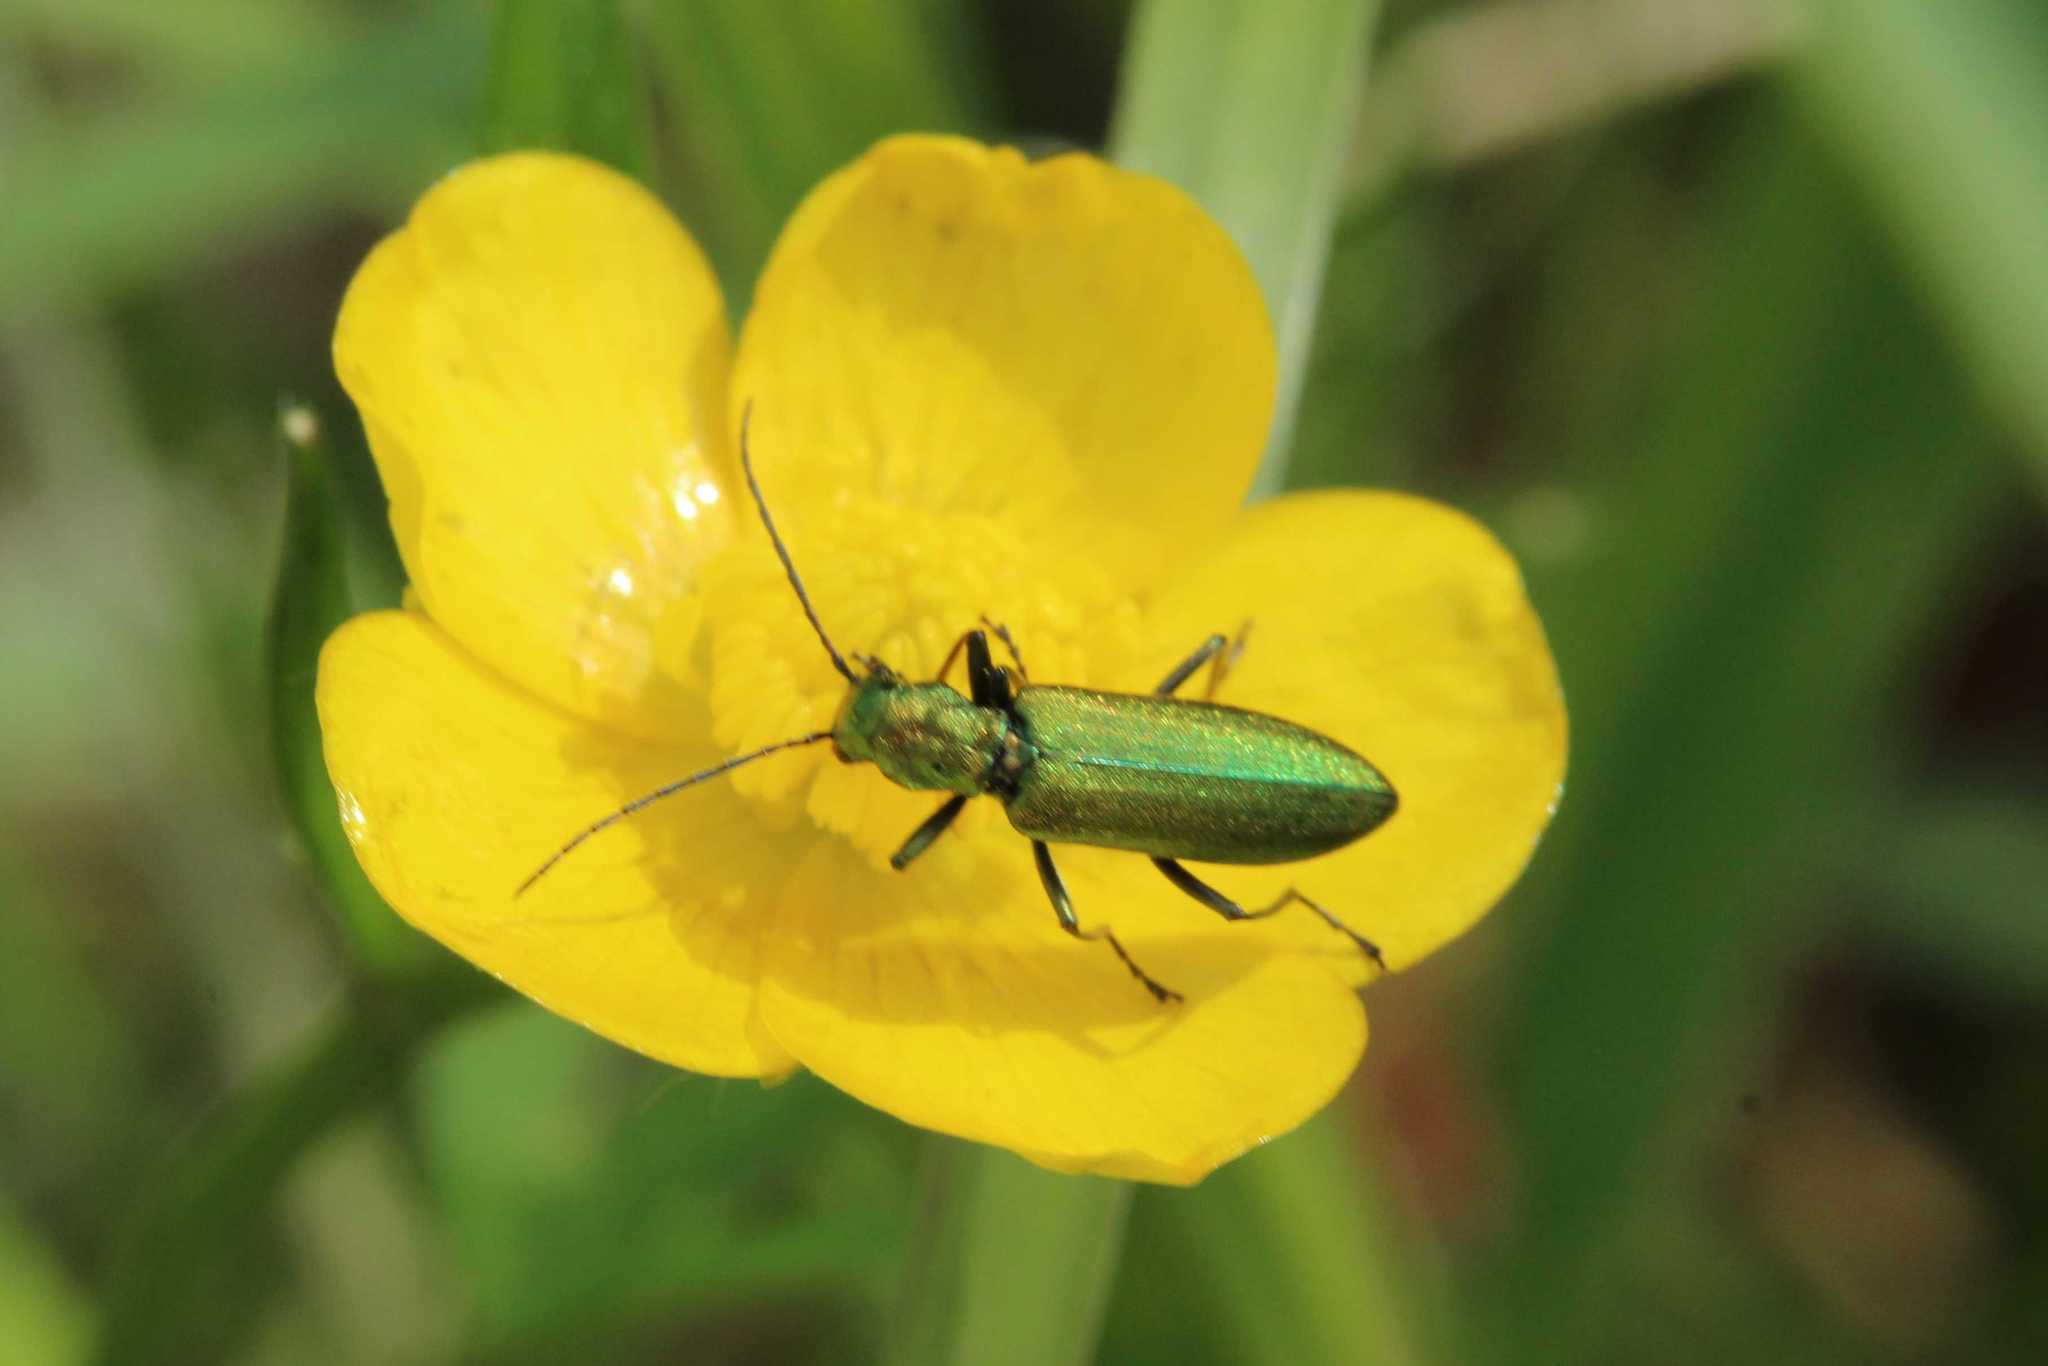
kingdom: Animalia
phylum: Arthropoda
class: Insecta
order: Coleoptera
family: Oedemeridae
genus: Chrysanthia
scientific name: Chrysanthia viridissima
